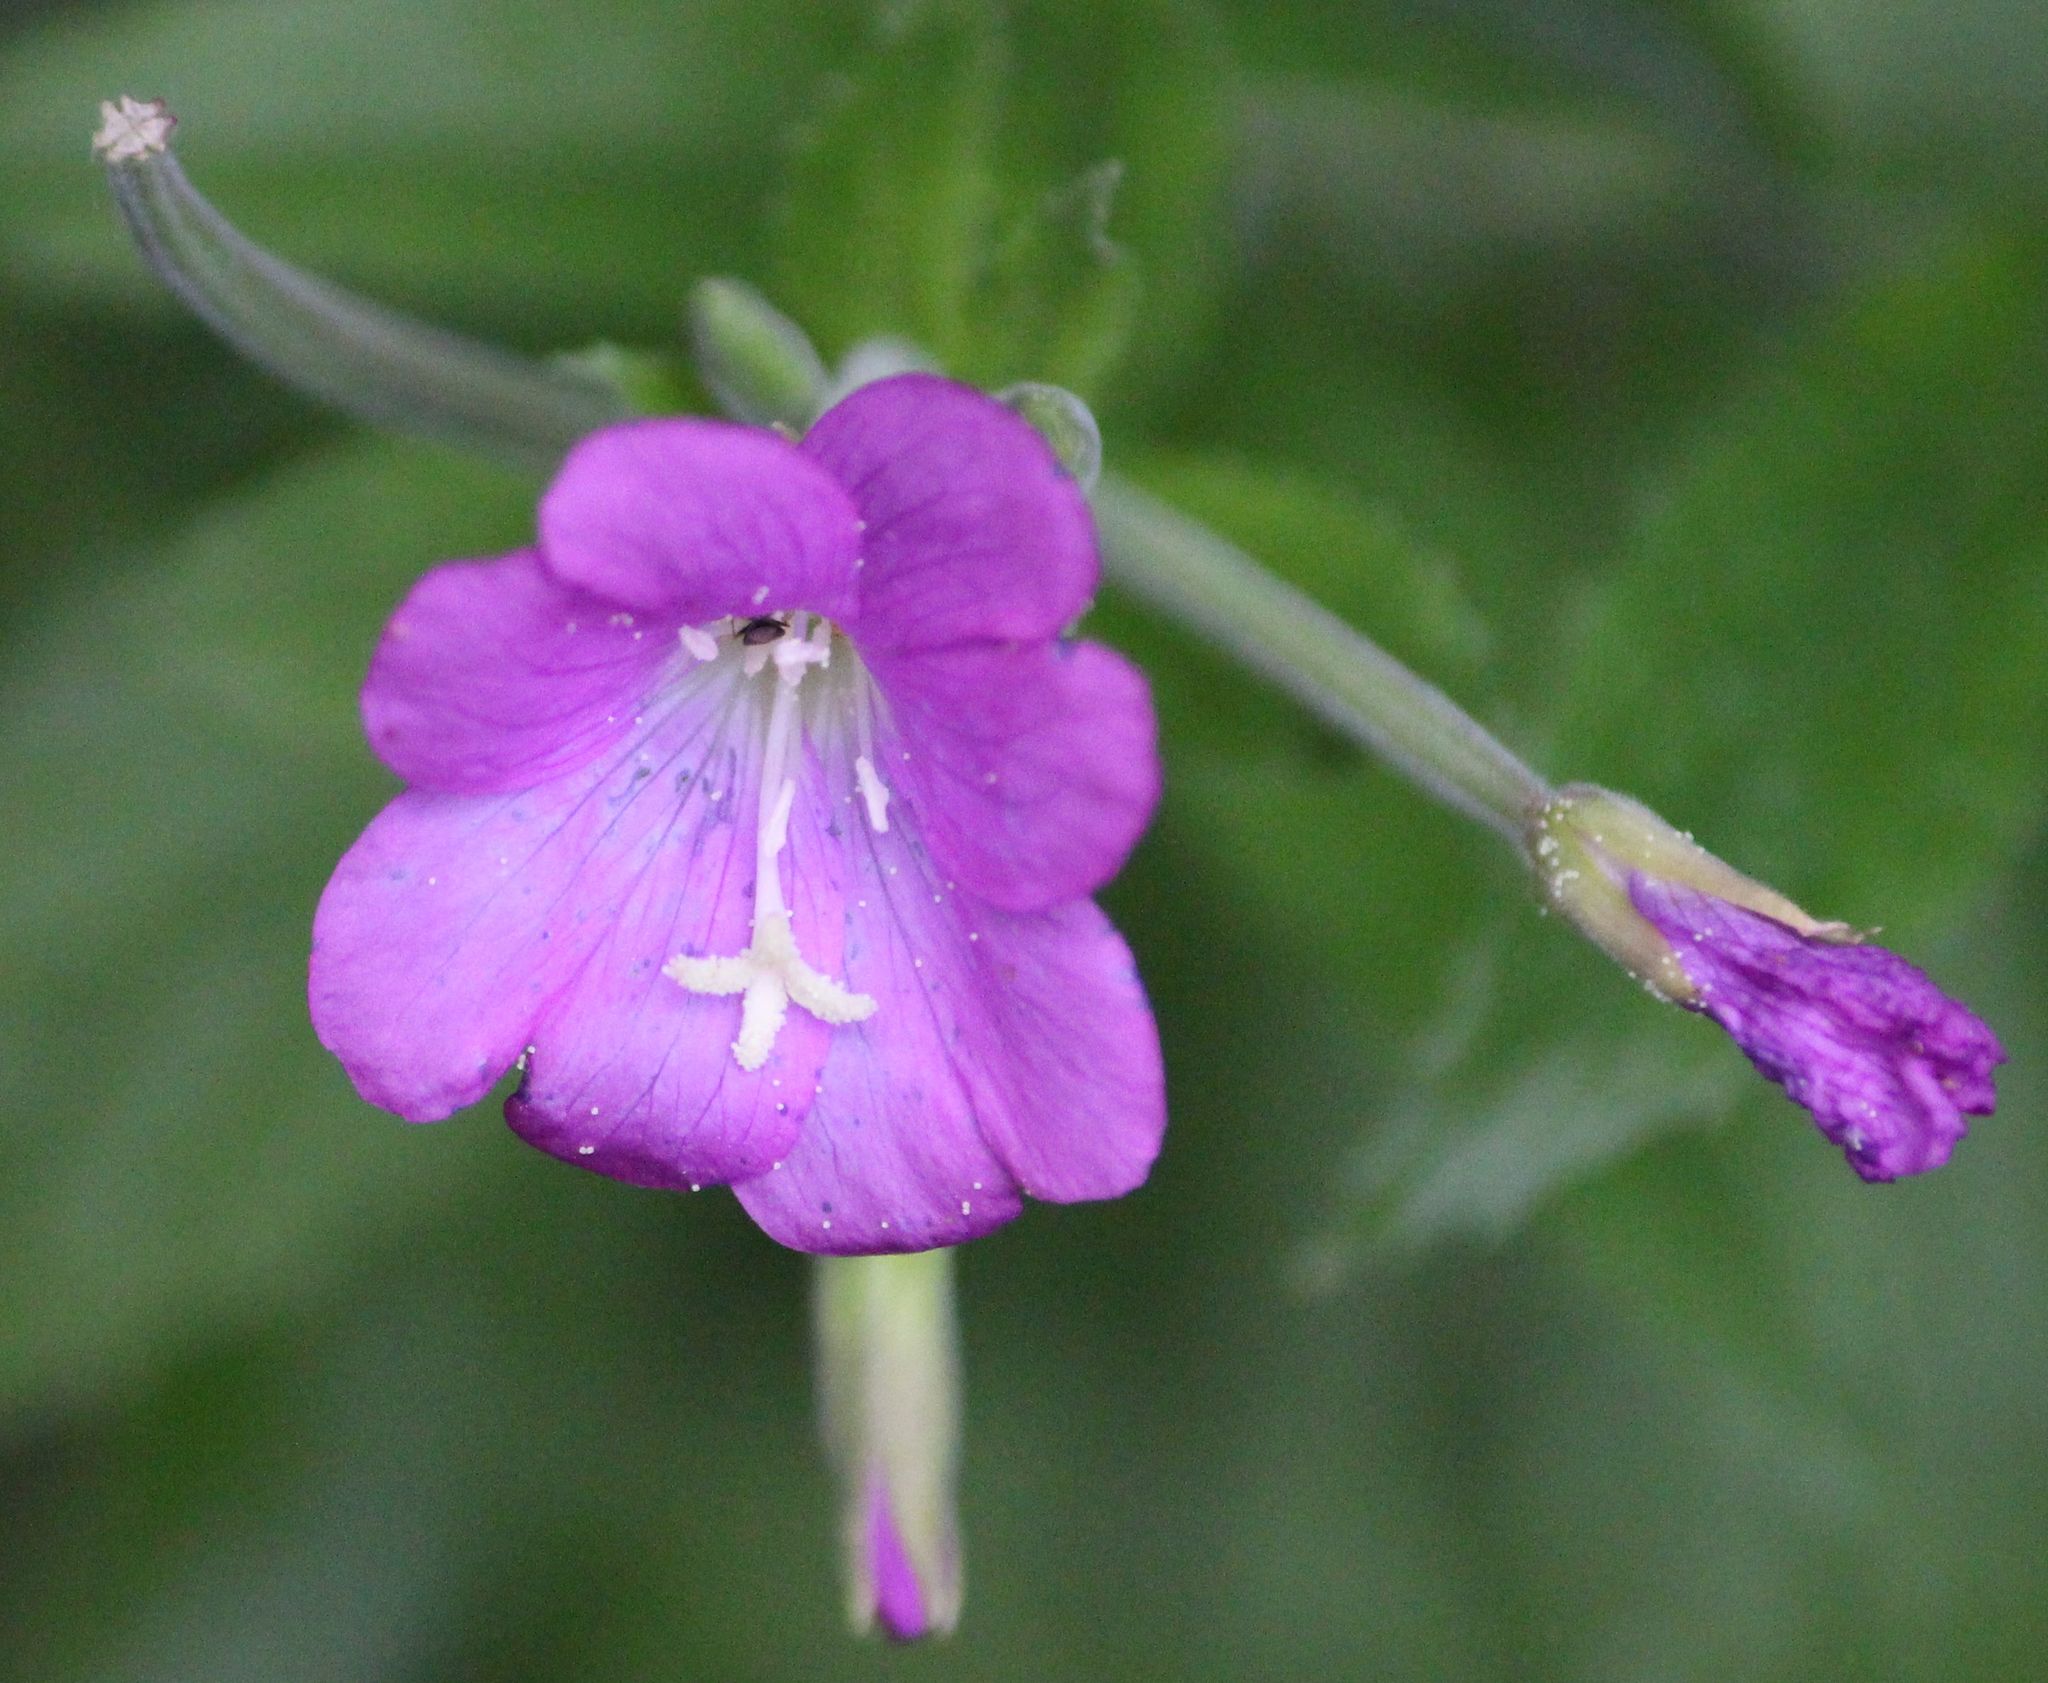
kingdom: Plantae
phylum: Tracheophyta
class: Magnoliopsida
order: Myrtales
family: Onagraceae
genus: Epilobium
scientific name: Epilobium hirsutum
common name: Great willowherb
